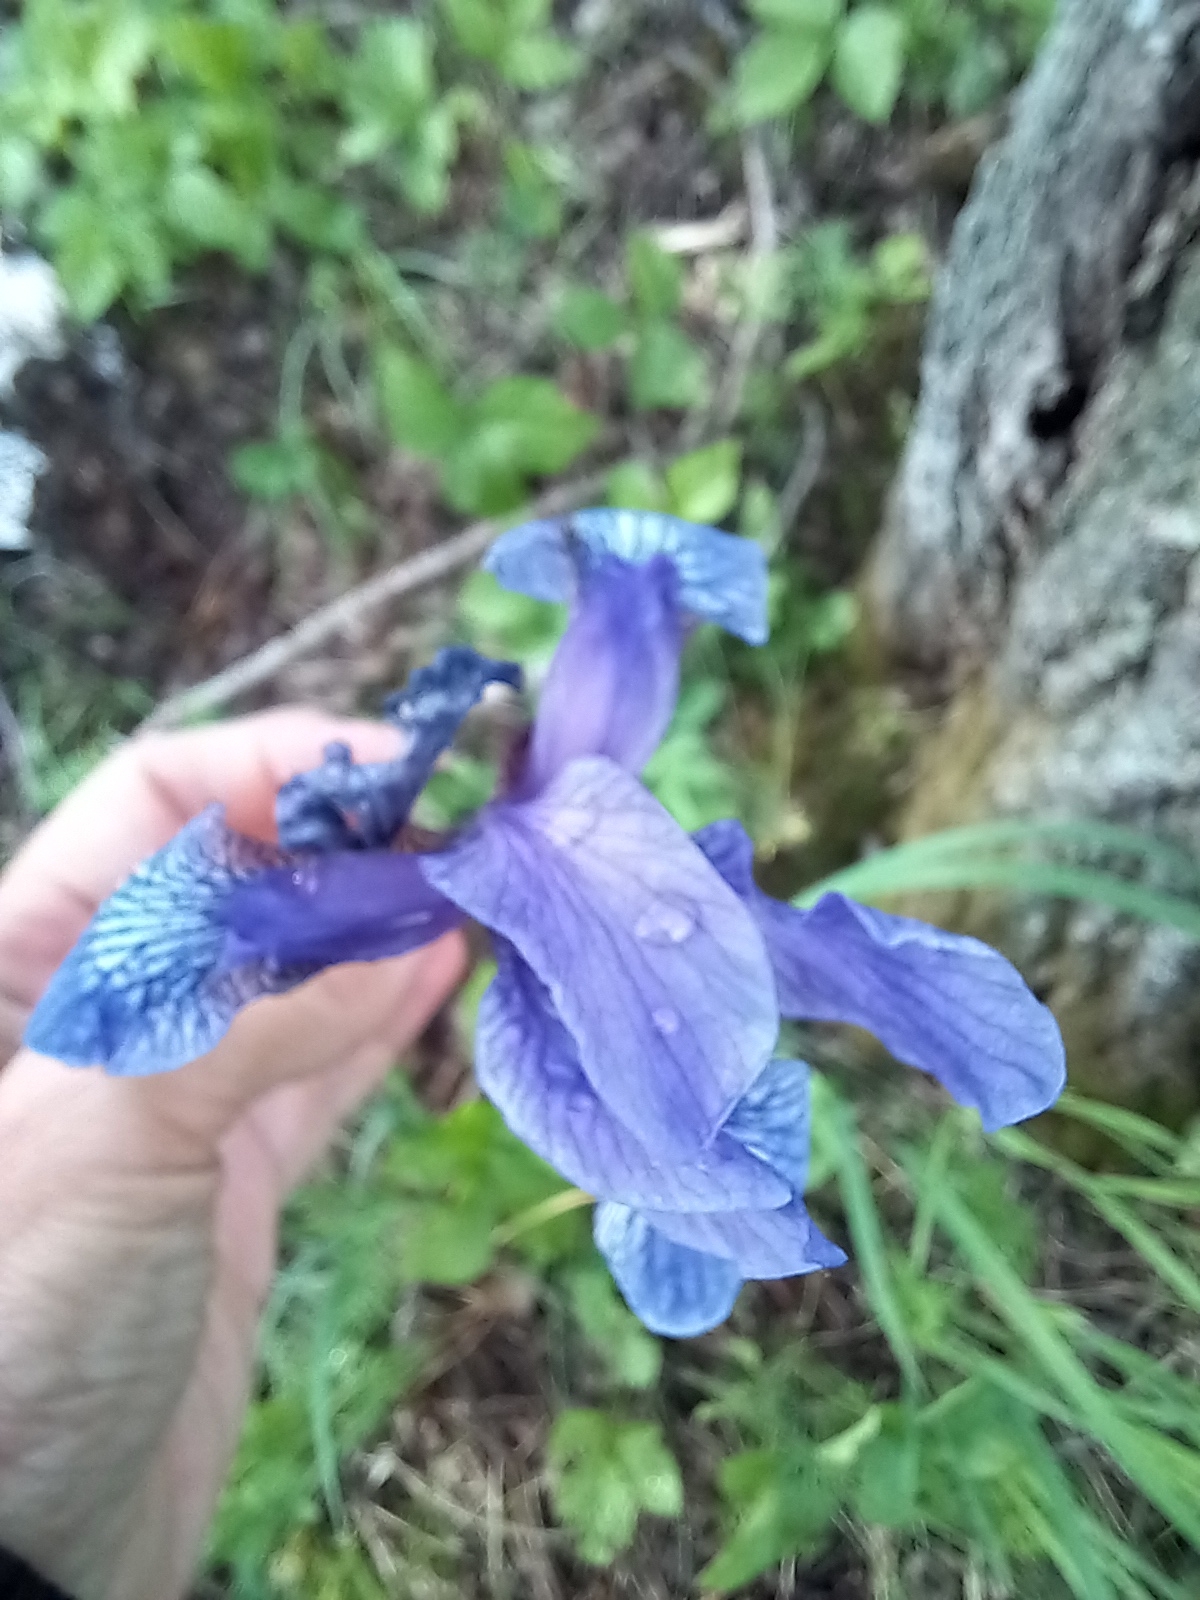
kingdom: Plantae
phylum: Tracheophyta
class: Liliopsida
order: Asparagales
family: Iridaceae
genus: Iris
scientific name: Iris sibirica
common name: Siberian iris
